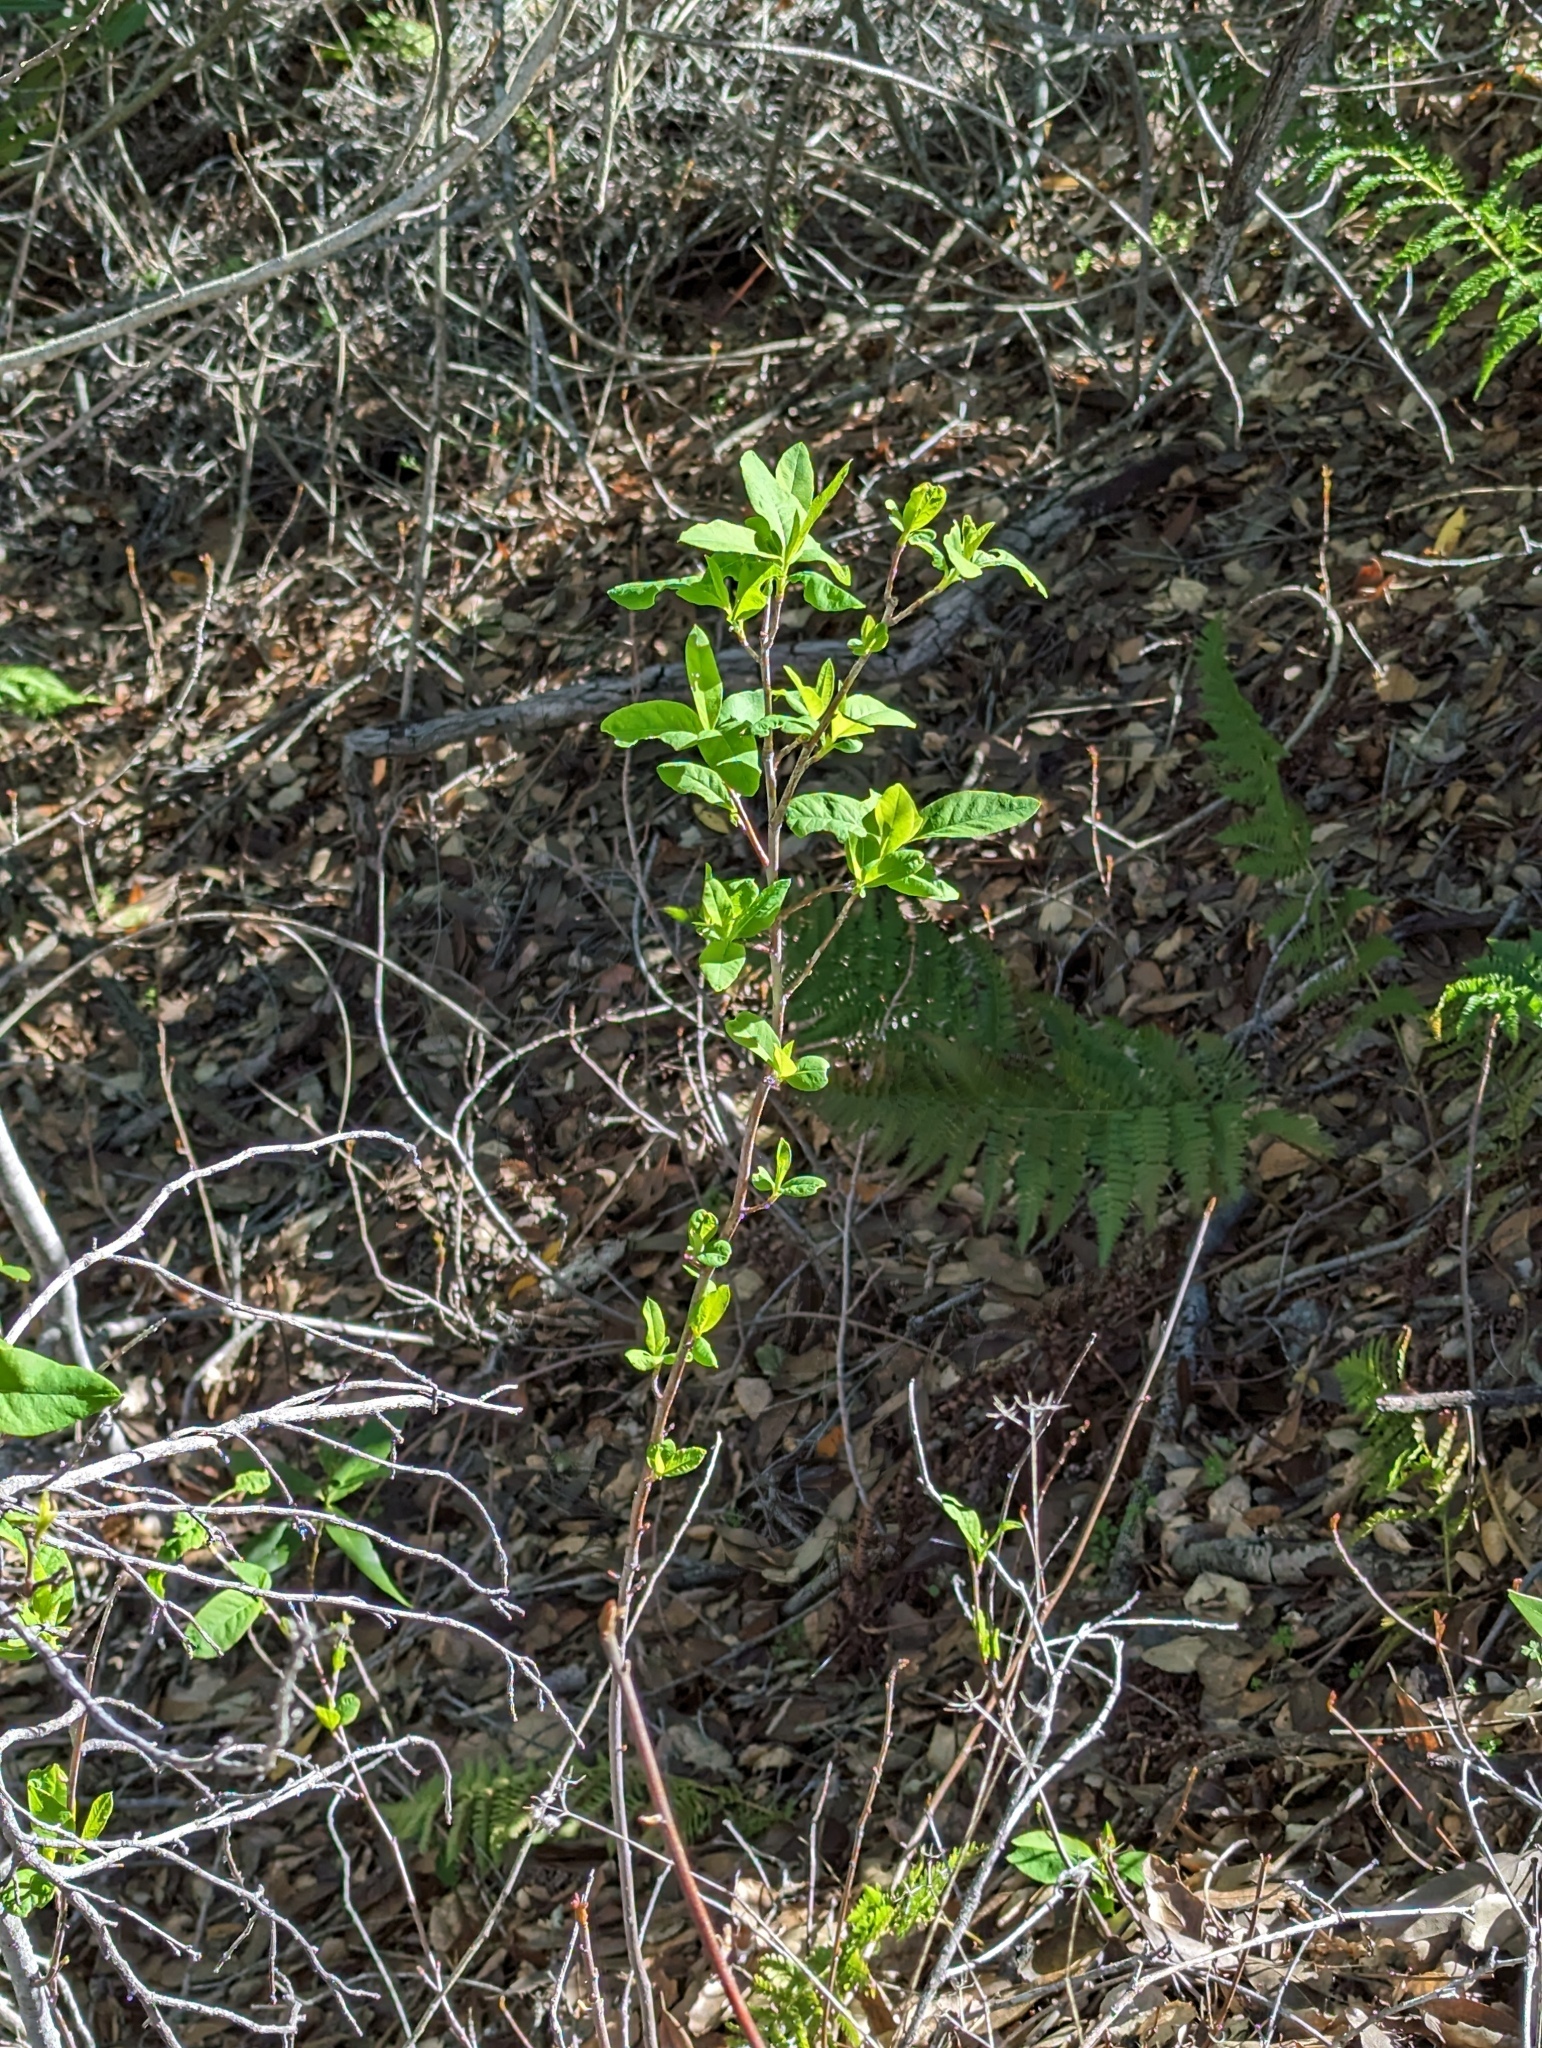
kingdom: Plantae
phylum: Tracheophyta
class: Magnoliopsida
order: Rosales
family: Rosaceae
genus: Oemleria
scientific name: Oemleria cerasiformis
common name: Osoberry
